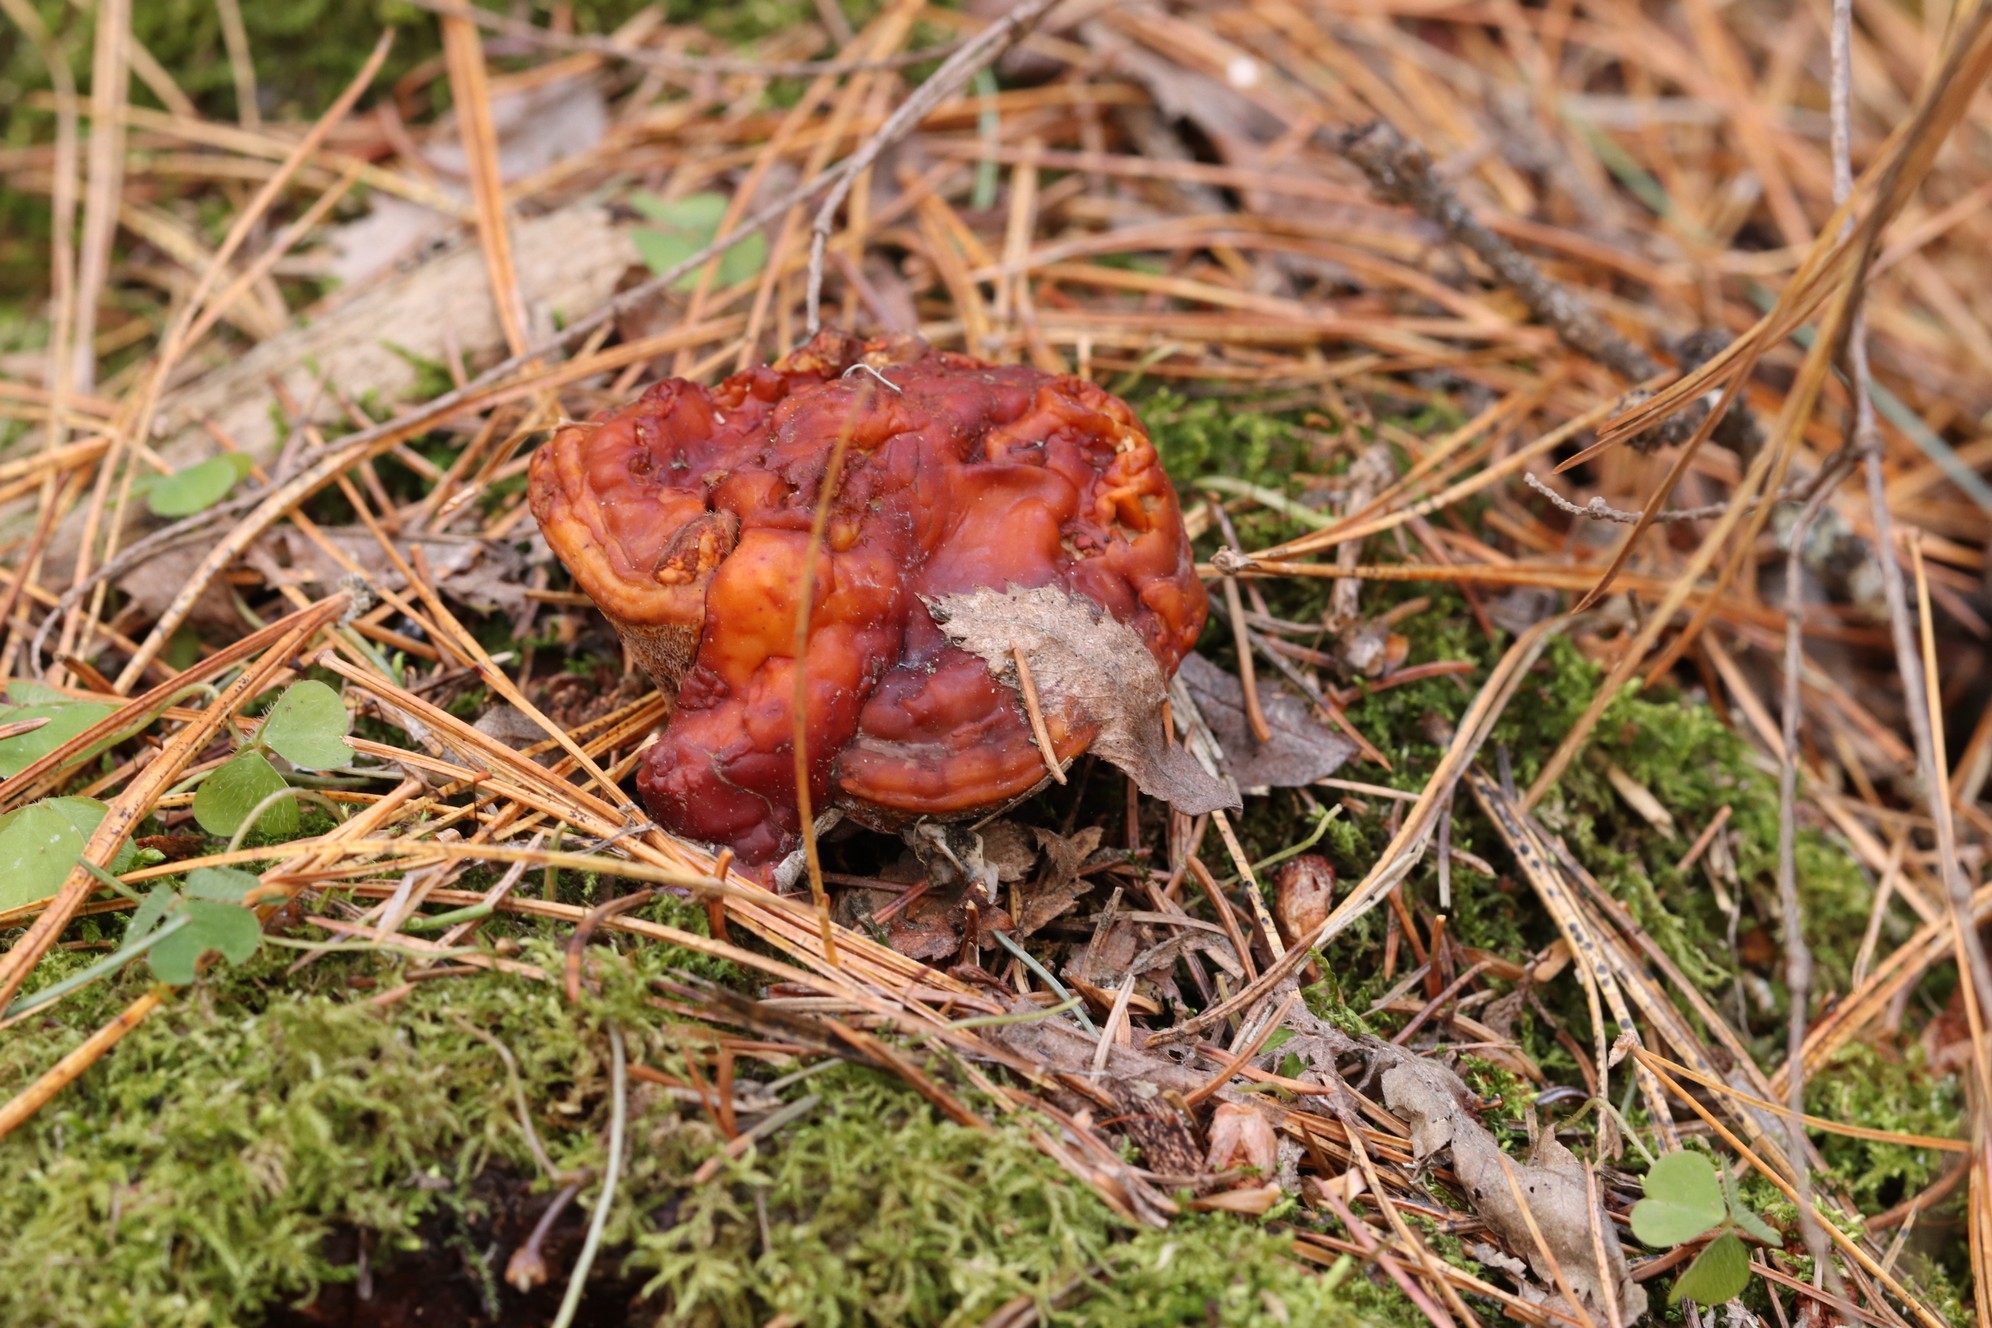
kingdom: Fungi
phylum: Basidiomycota
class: Agaricomycetes
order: Polyporales
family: Polyporaceae
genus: Ganoderma
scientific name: Ganoderma lucidum
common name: Lacquered bracket
